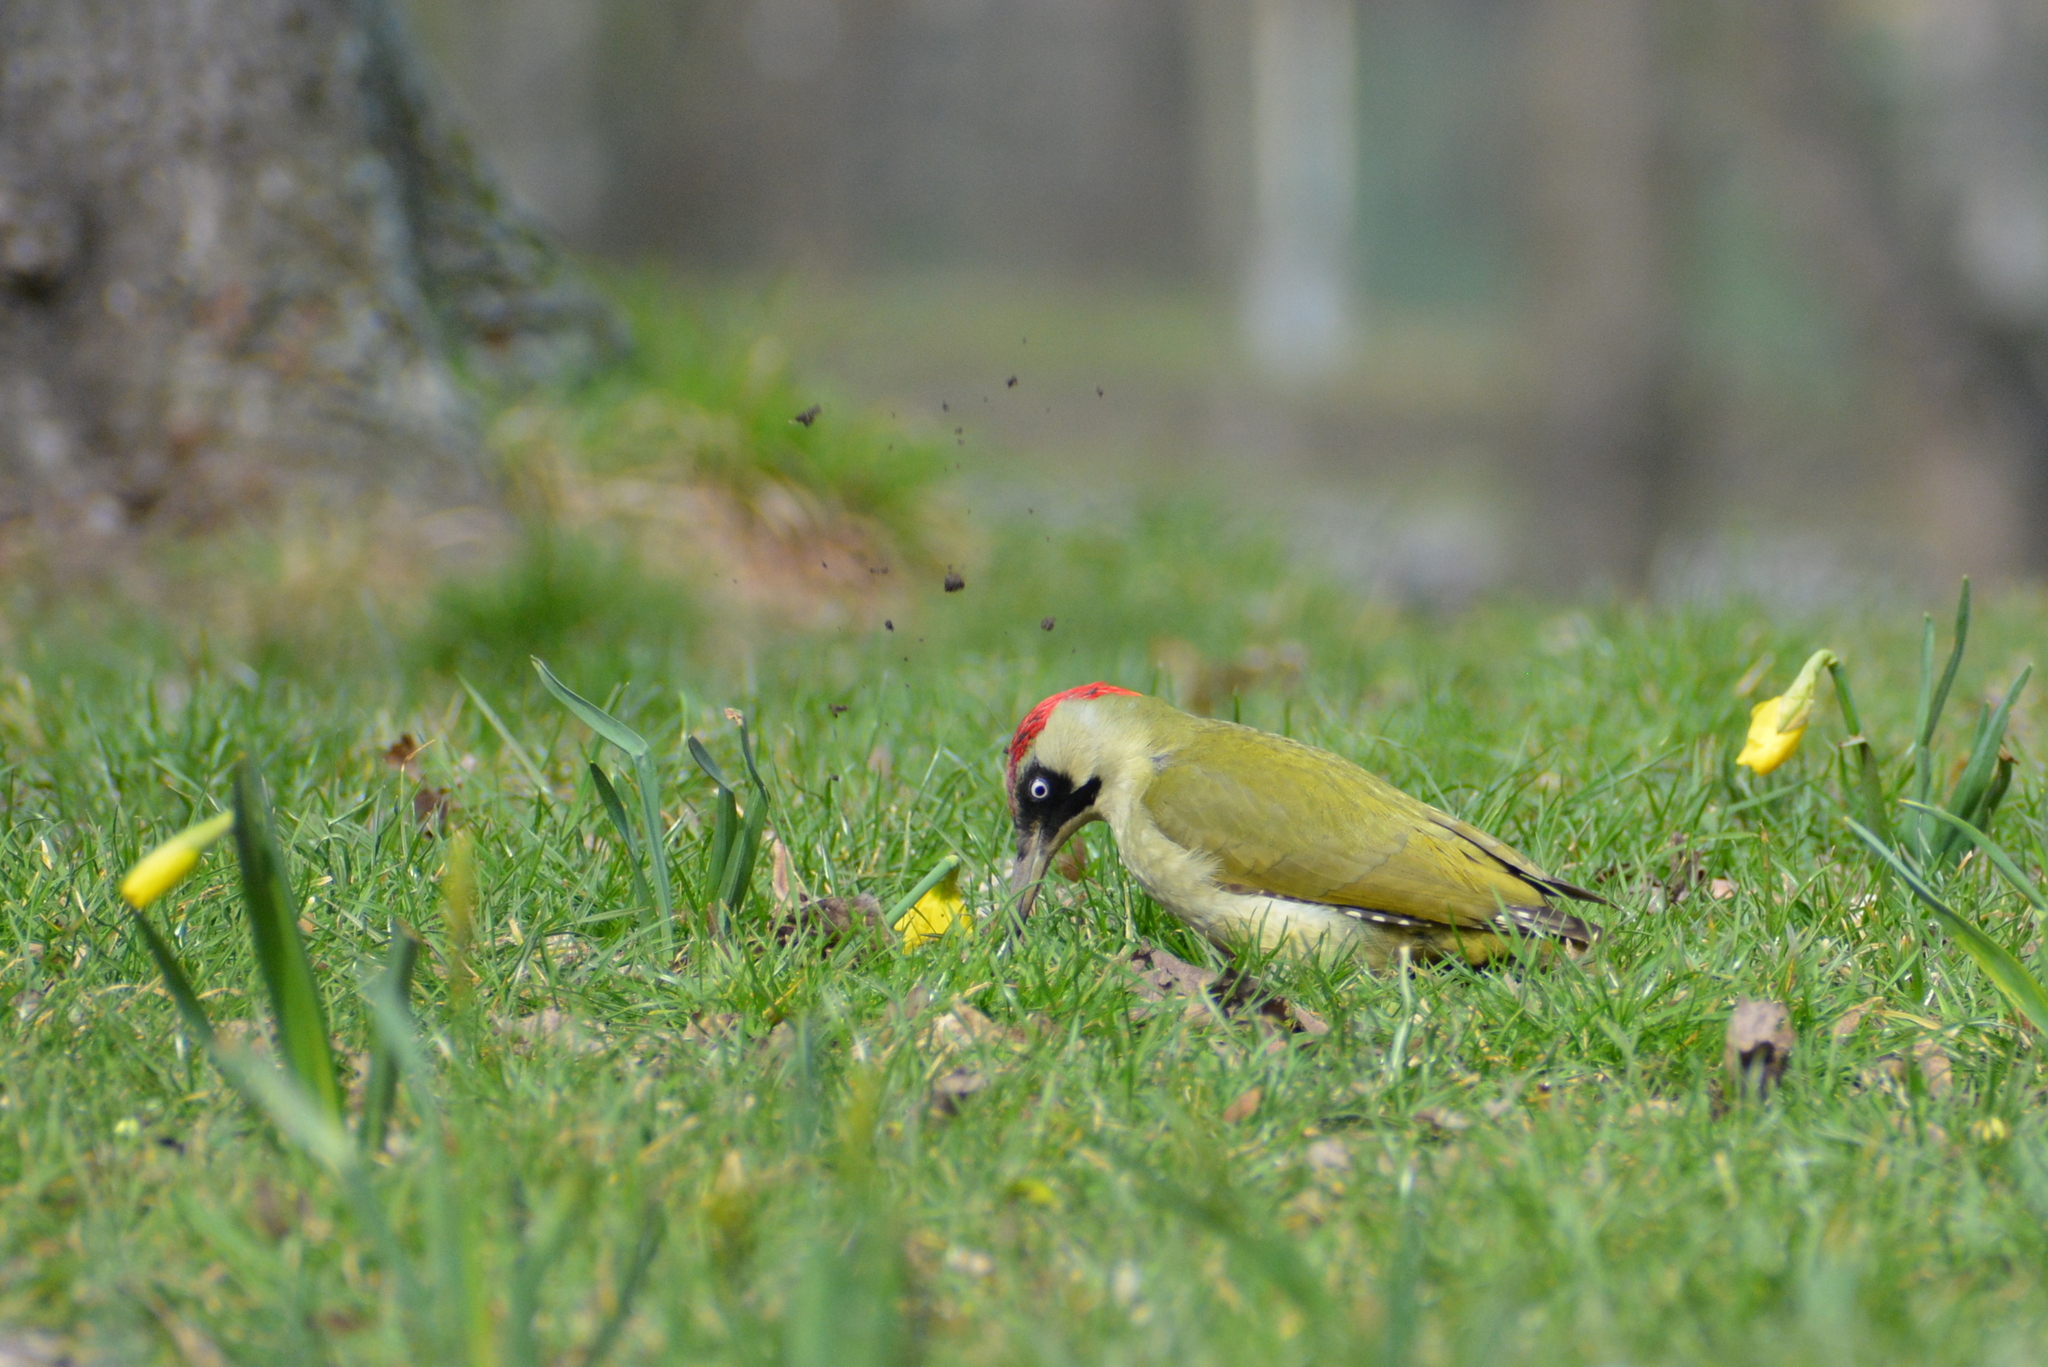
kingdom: Animalia
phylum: Chordata
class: Aves
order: Piciformes
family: Picidae
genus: Picus
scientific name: Picus viridis
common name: European green woodpecker
